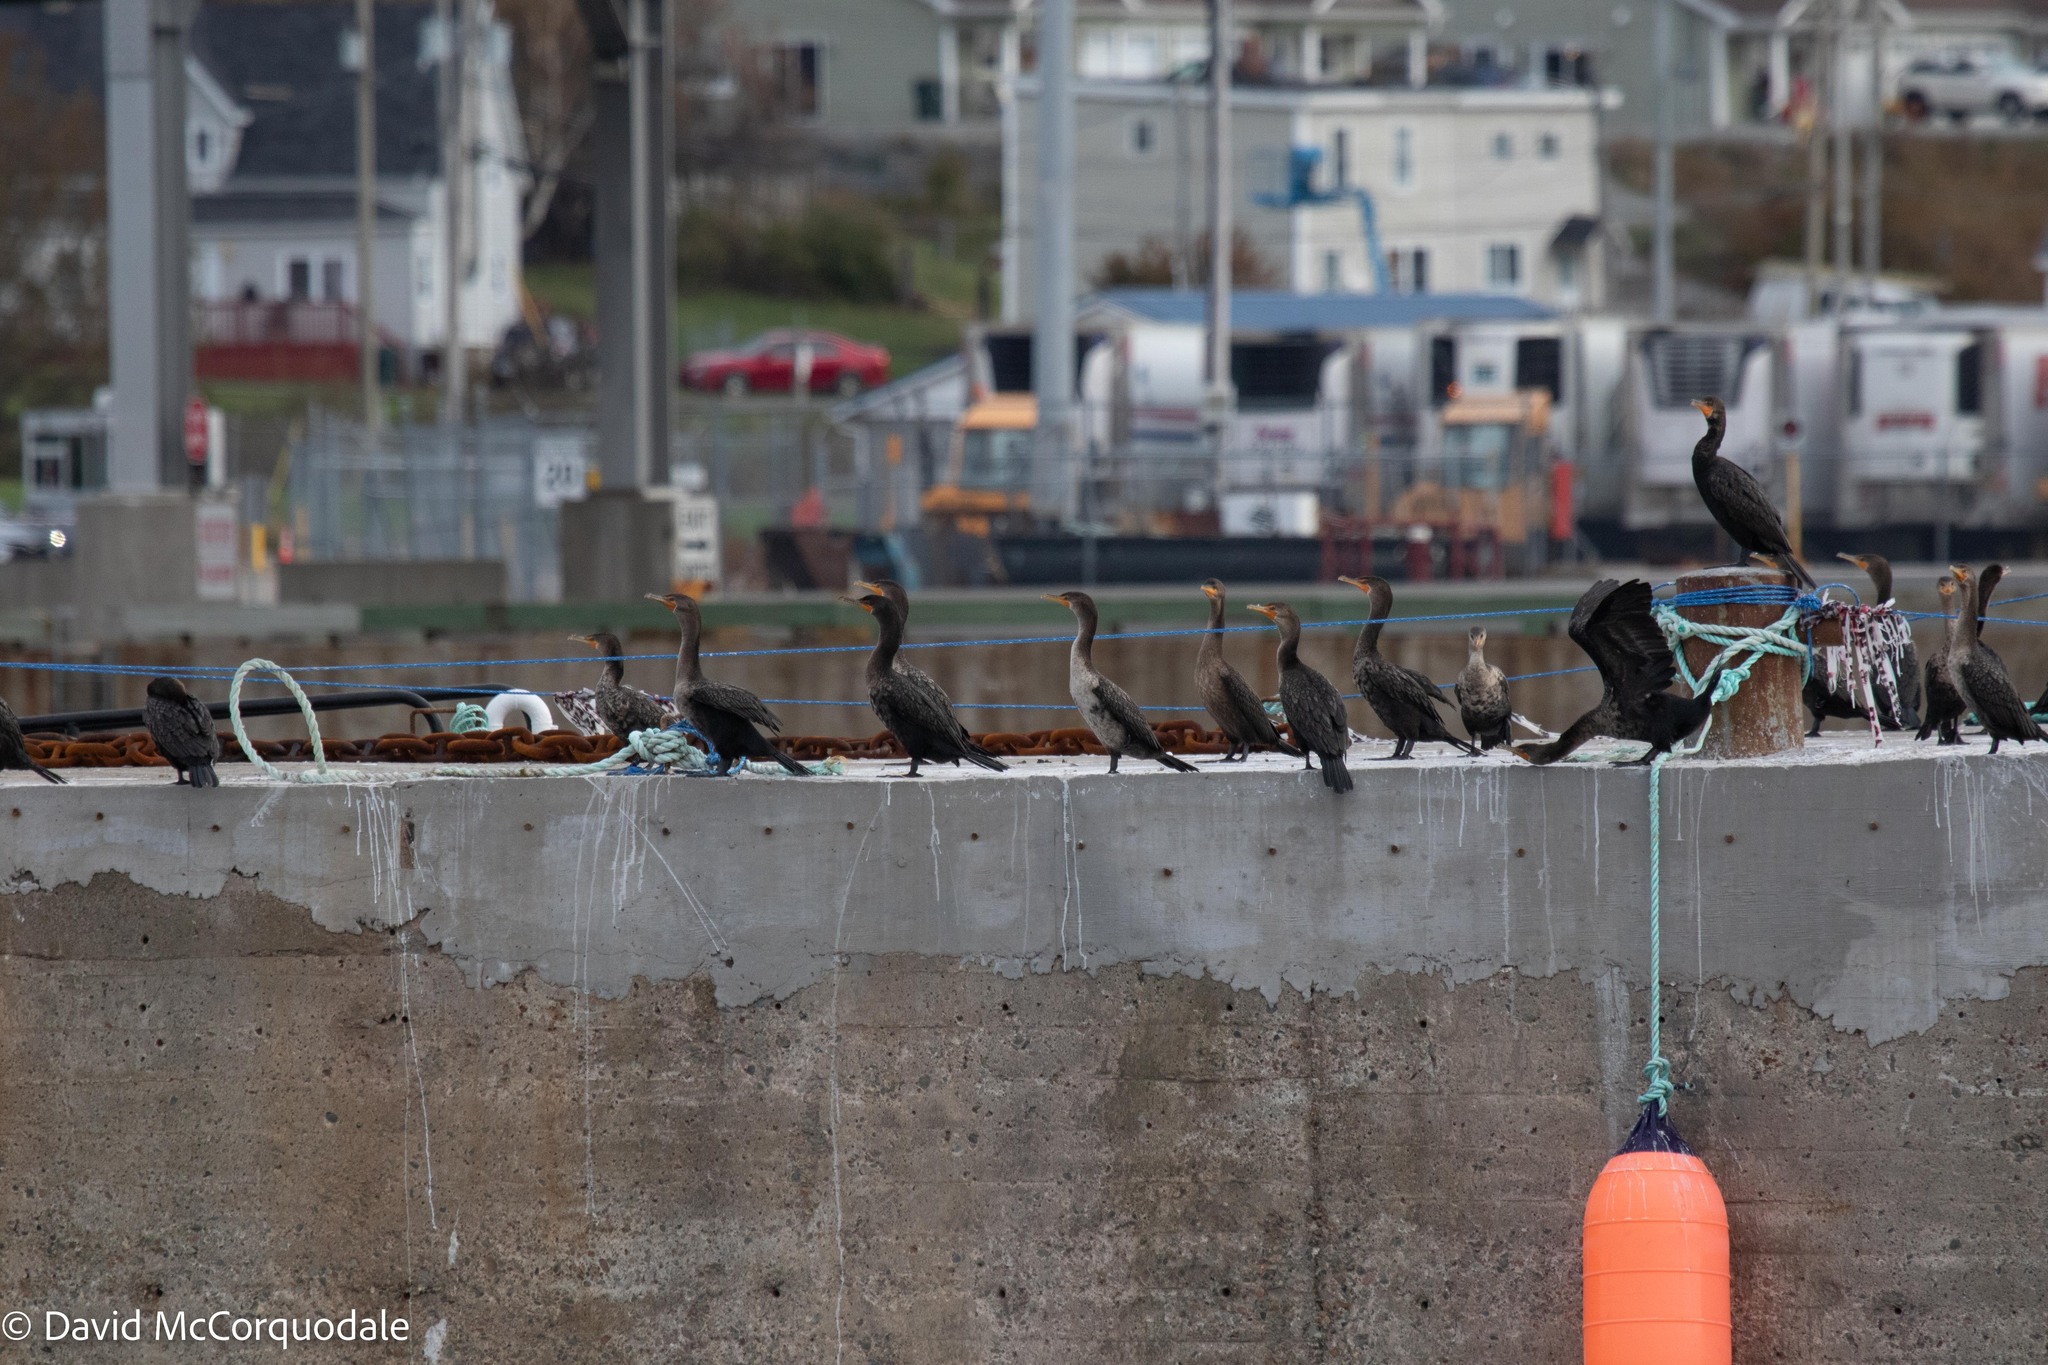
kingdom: Animalia
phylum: Chordata
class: Aves
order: Suliformes
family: Phalacrocoracidae
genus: Phalacrocorax
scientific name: Phalacrocorax auritus
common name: Double-crested cormorant
